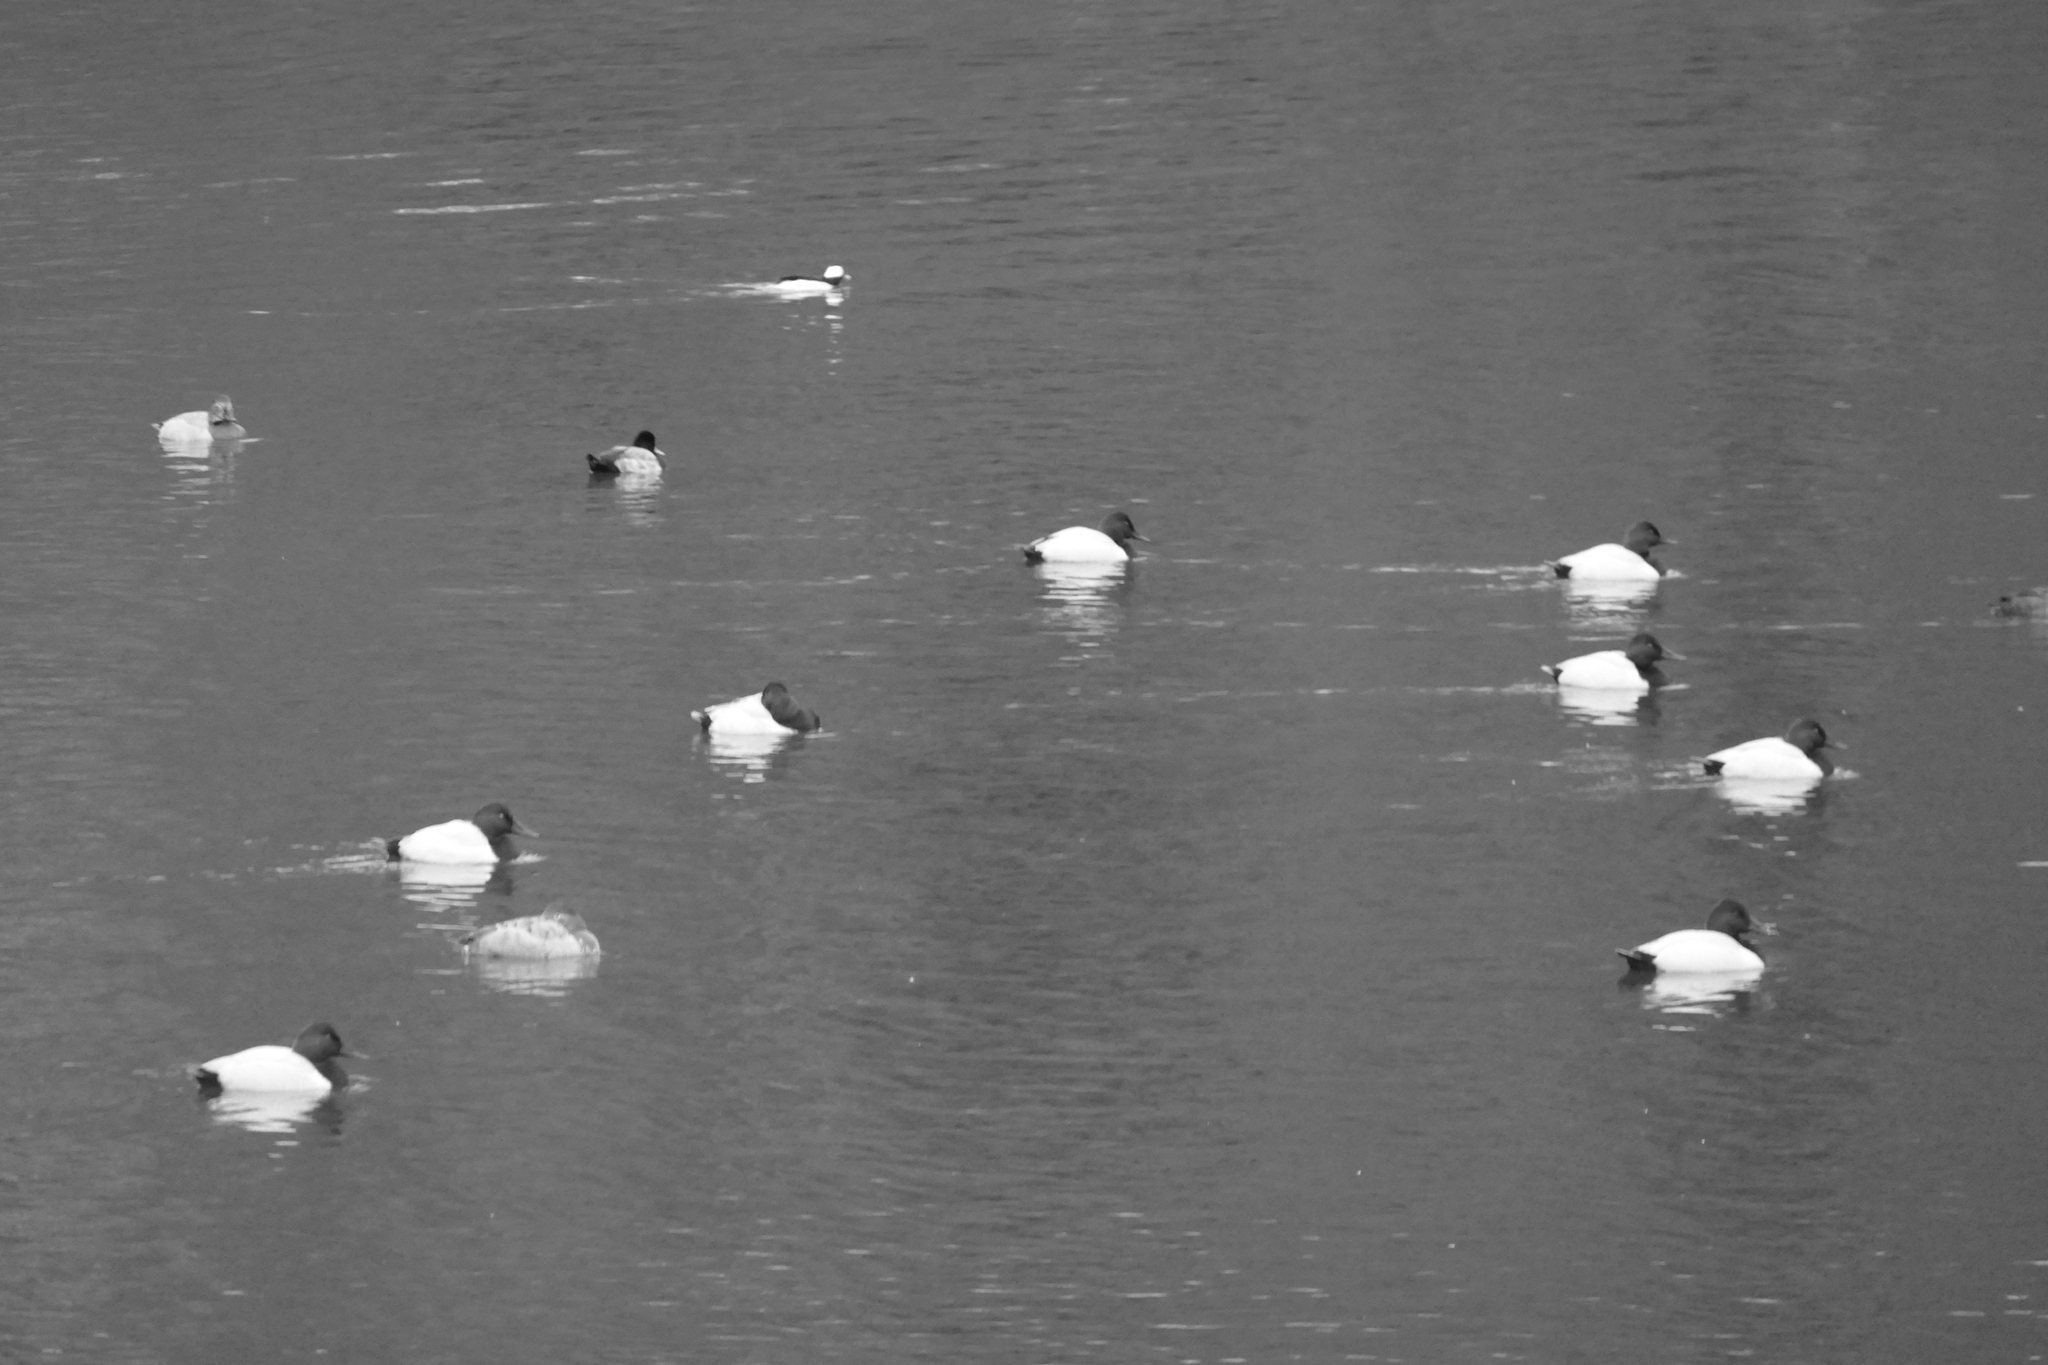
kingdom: Animalia
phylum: Chordata
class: Aves
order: Anseriformes
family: Anatidae
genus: Aythya
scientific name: Aythya valisineria
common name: Canvasback
